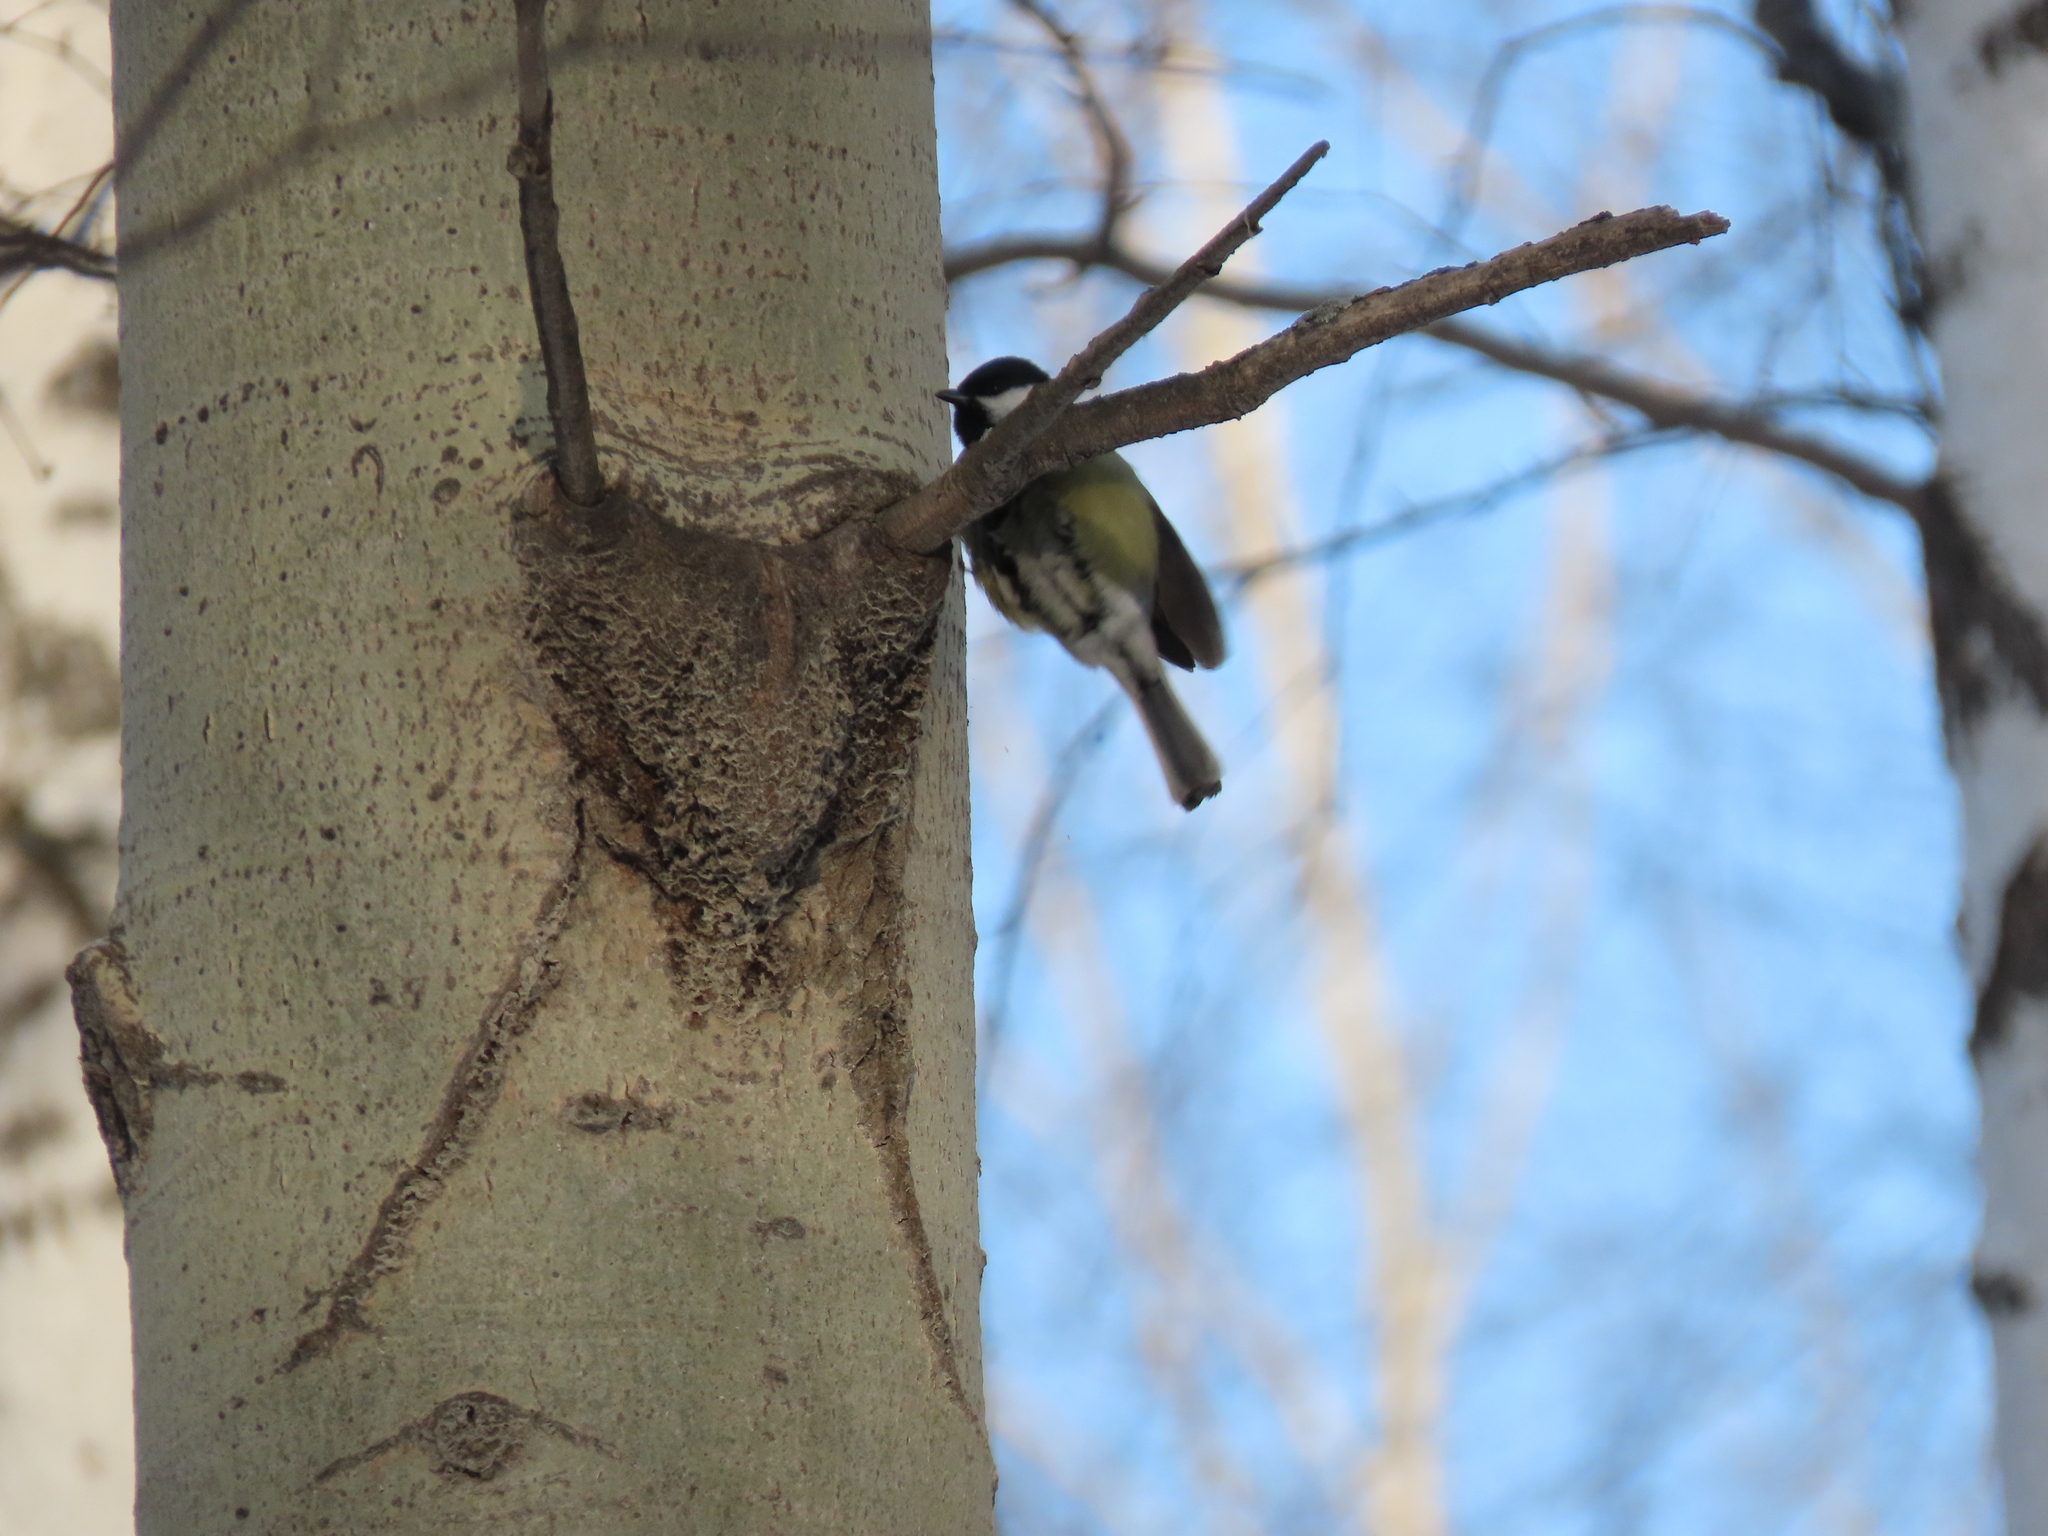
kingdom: Animalia
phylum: Chordata
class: Aves
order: Passeriformes
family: Paridae
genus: Parus
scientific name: Parus major
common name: Great tit
